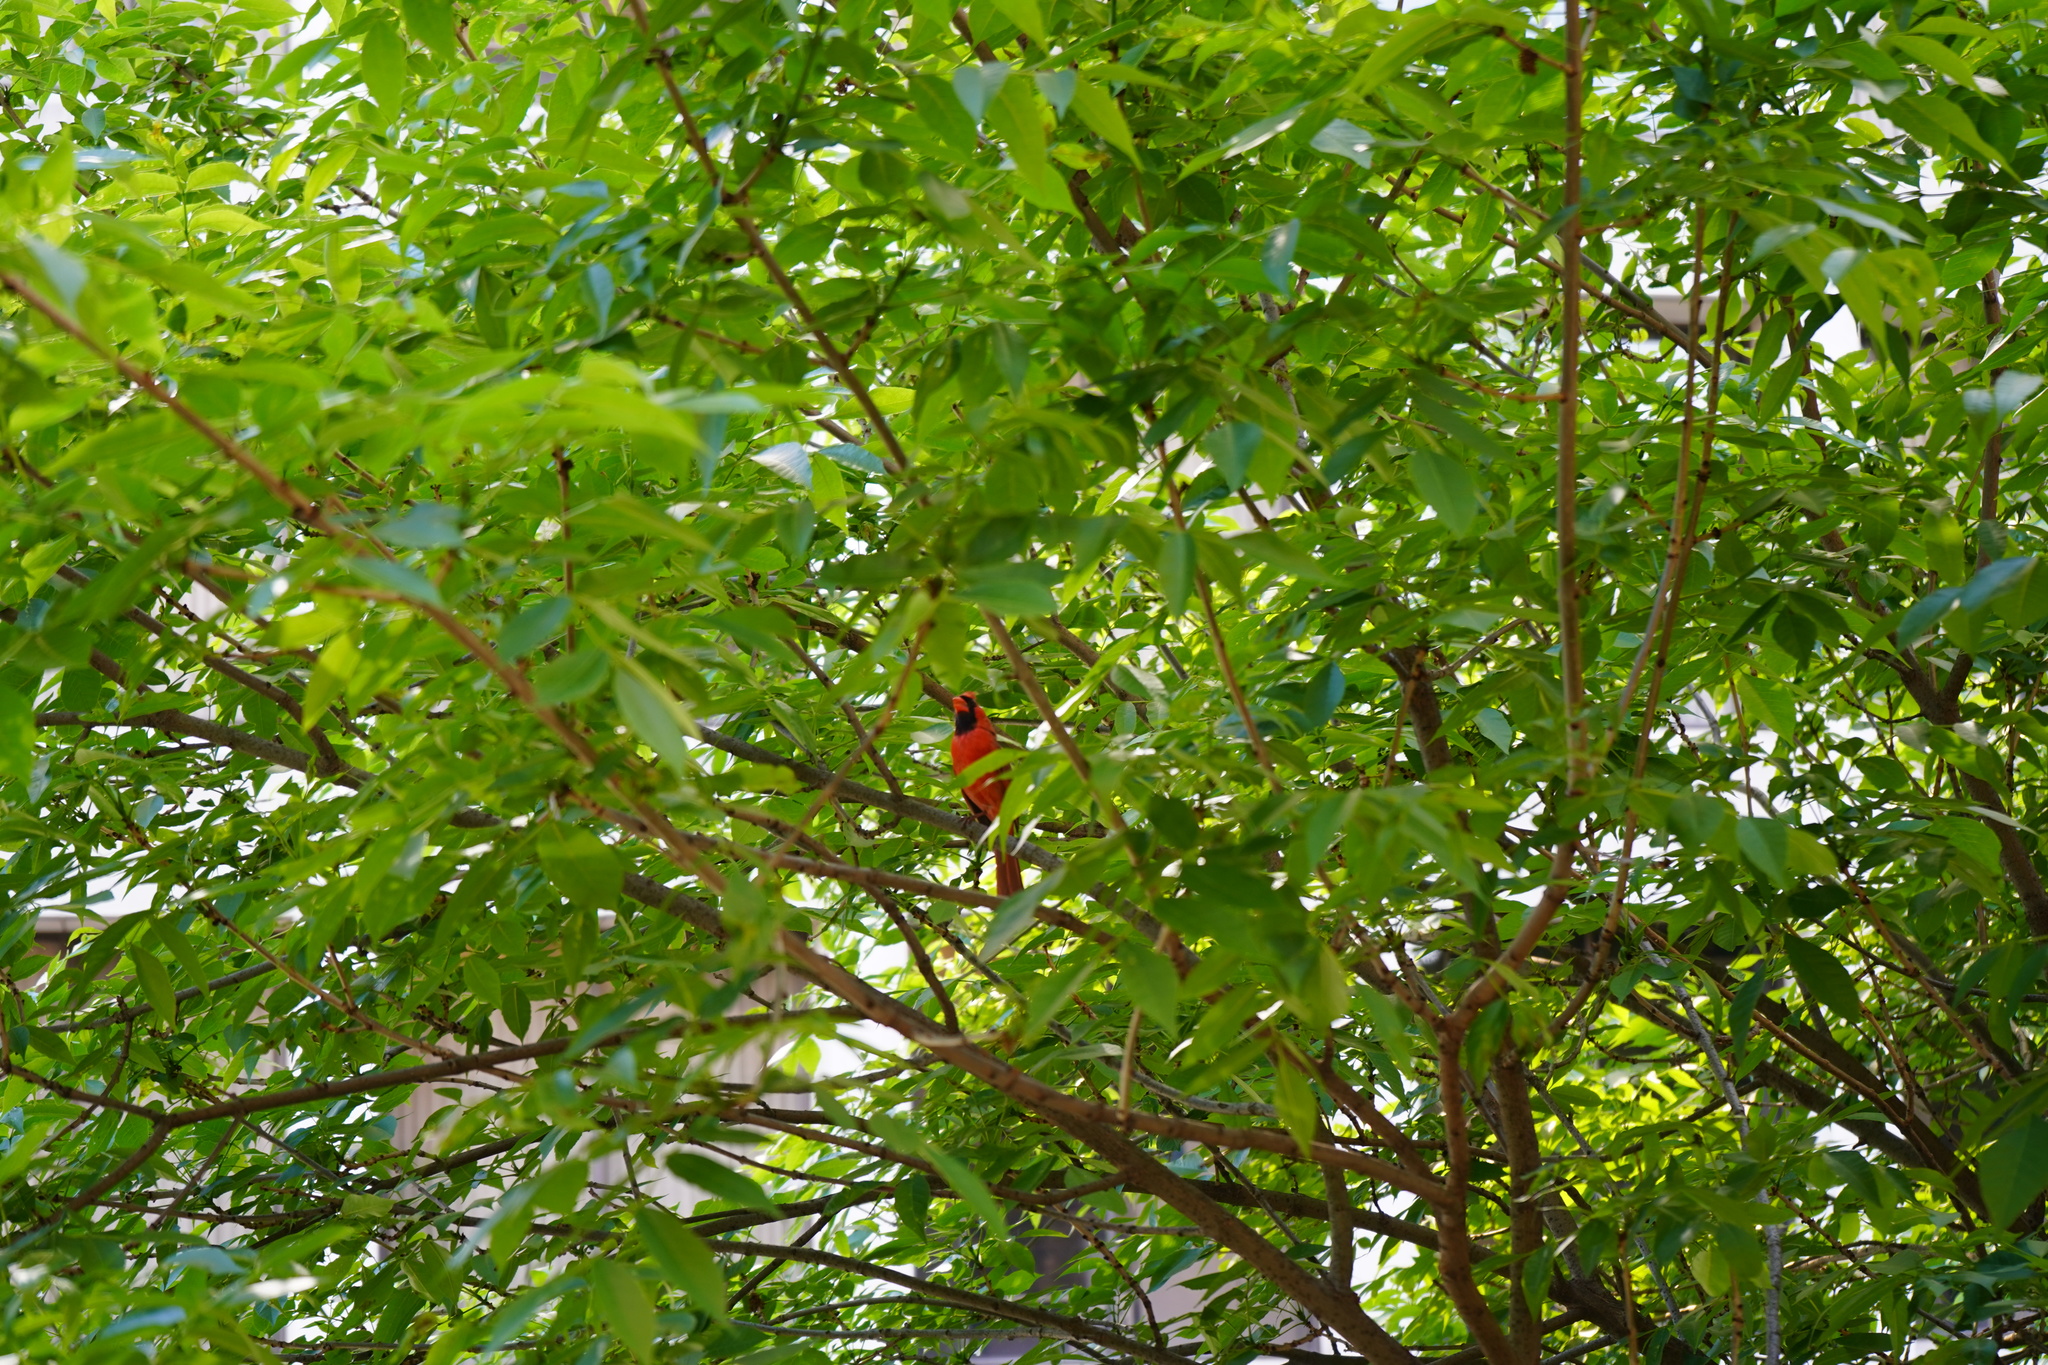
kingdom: Animalia
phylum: Chordata
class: Aves
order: Passeriformes
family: Cardinalidae
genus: Cardinalis
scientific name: Cardinalis cardinalis
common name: Northern cardinal
